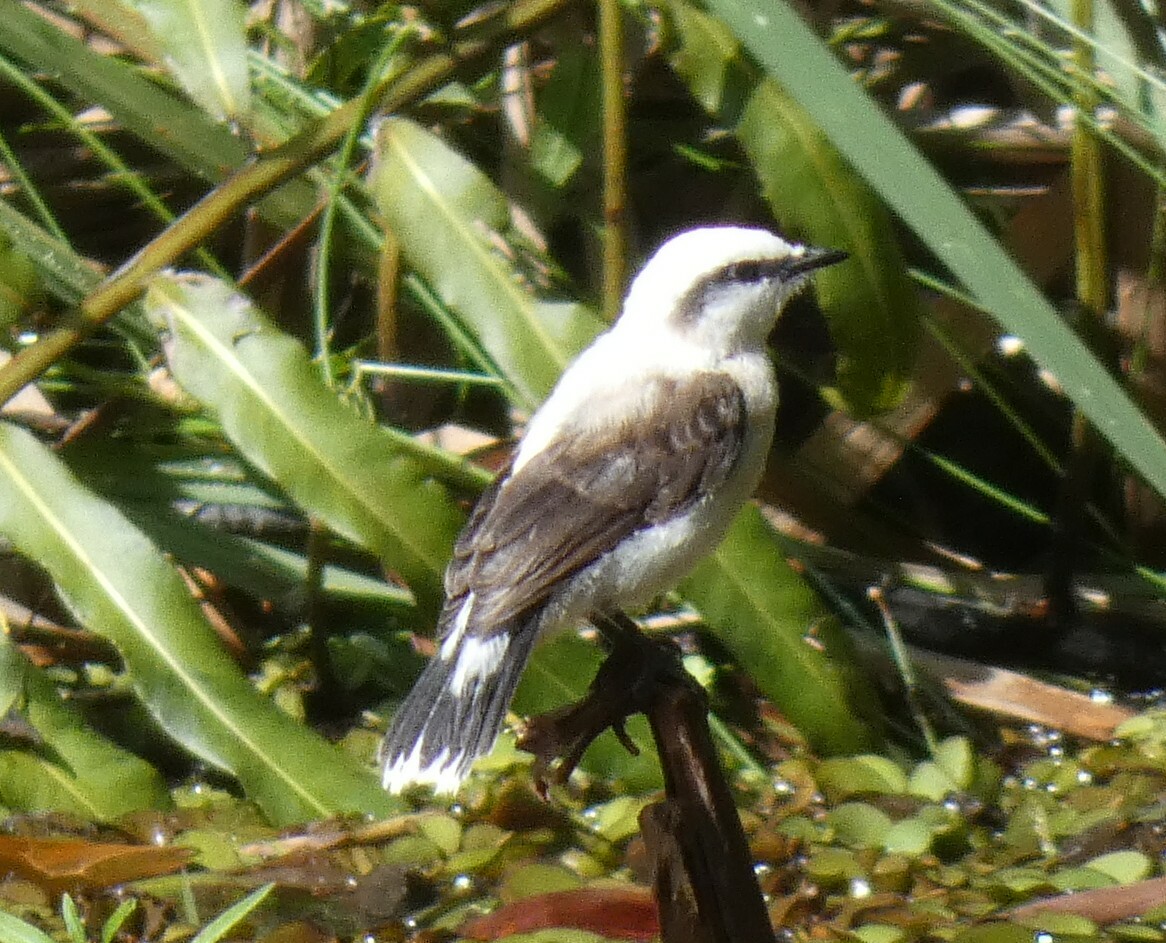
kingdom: Animalia
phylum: Chordata
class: Aves
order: Passeriformes
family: Tyrannidae
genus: Fluvicola
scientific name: Fluvicola nengeta
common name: Masked water tyrant
